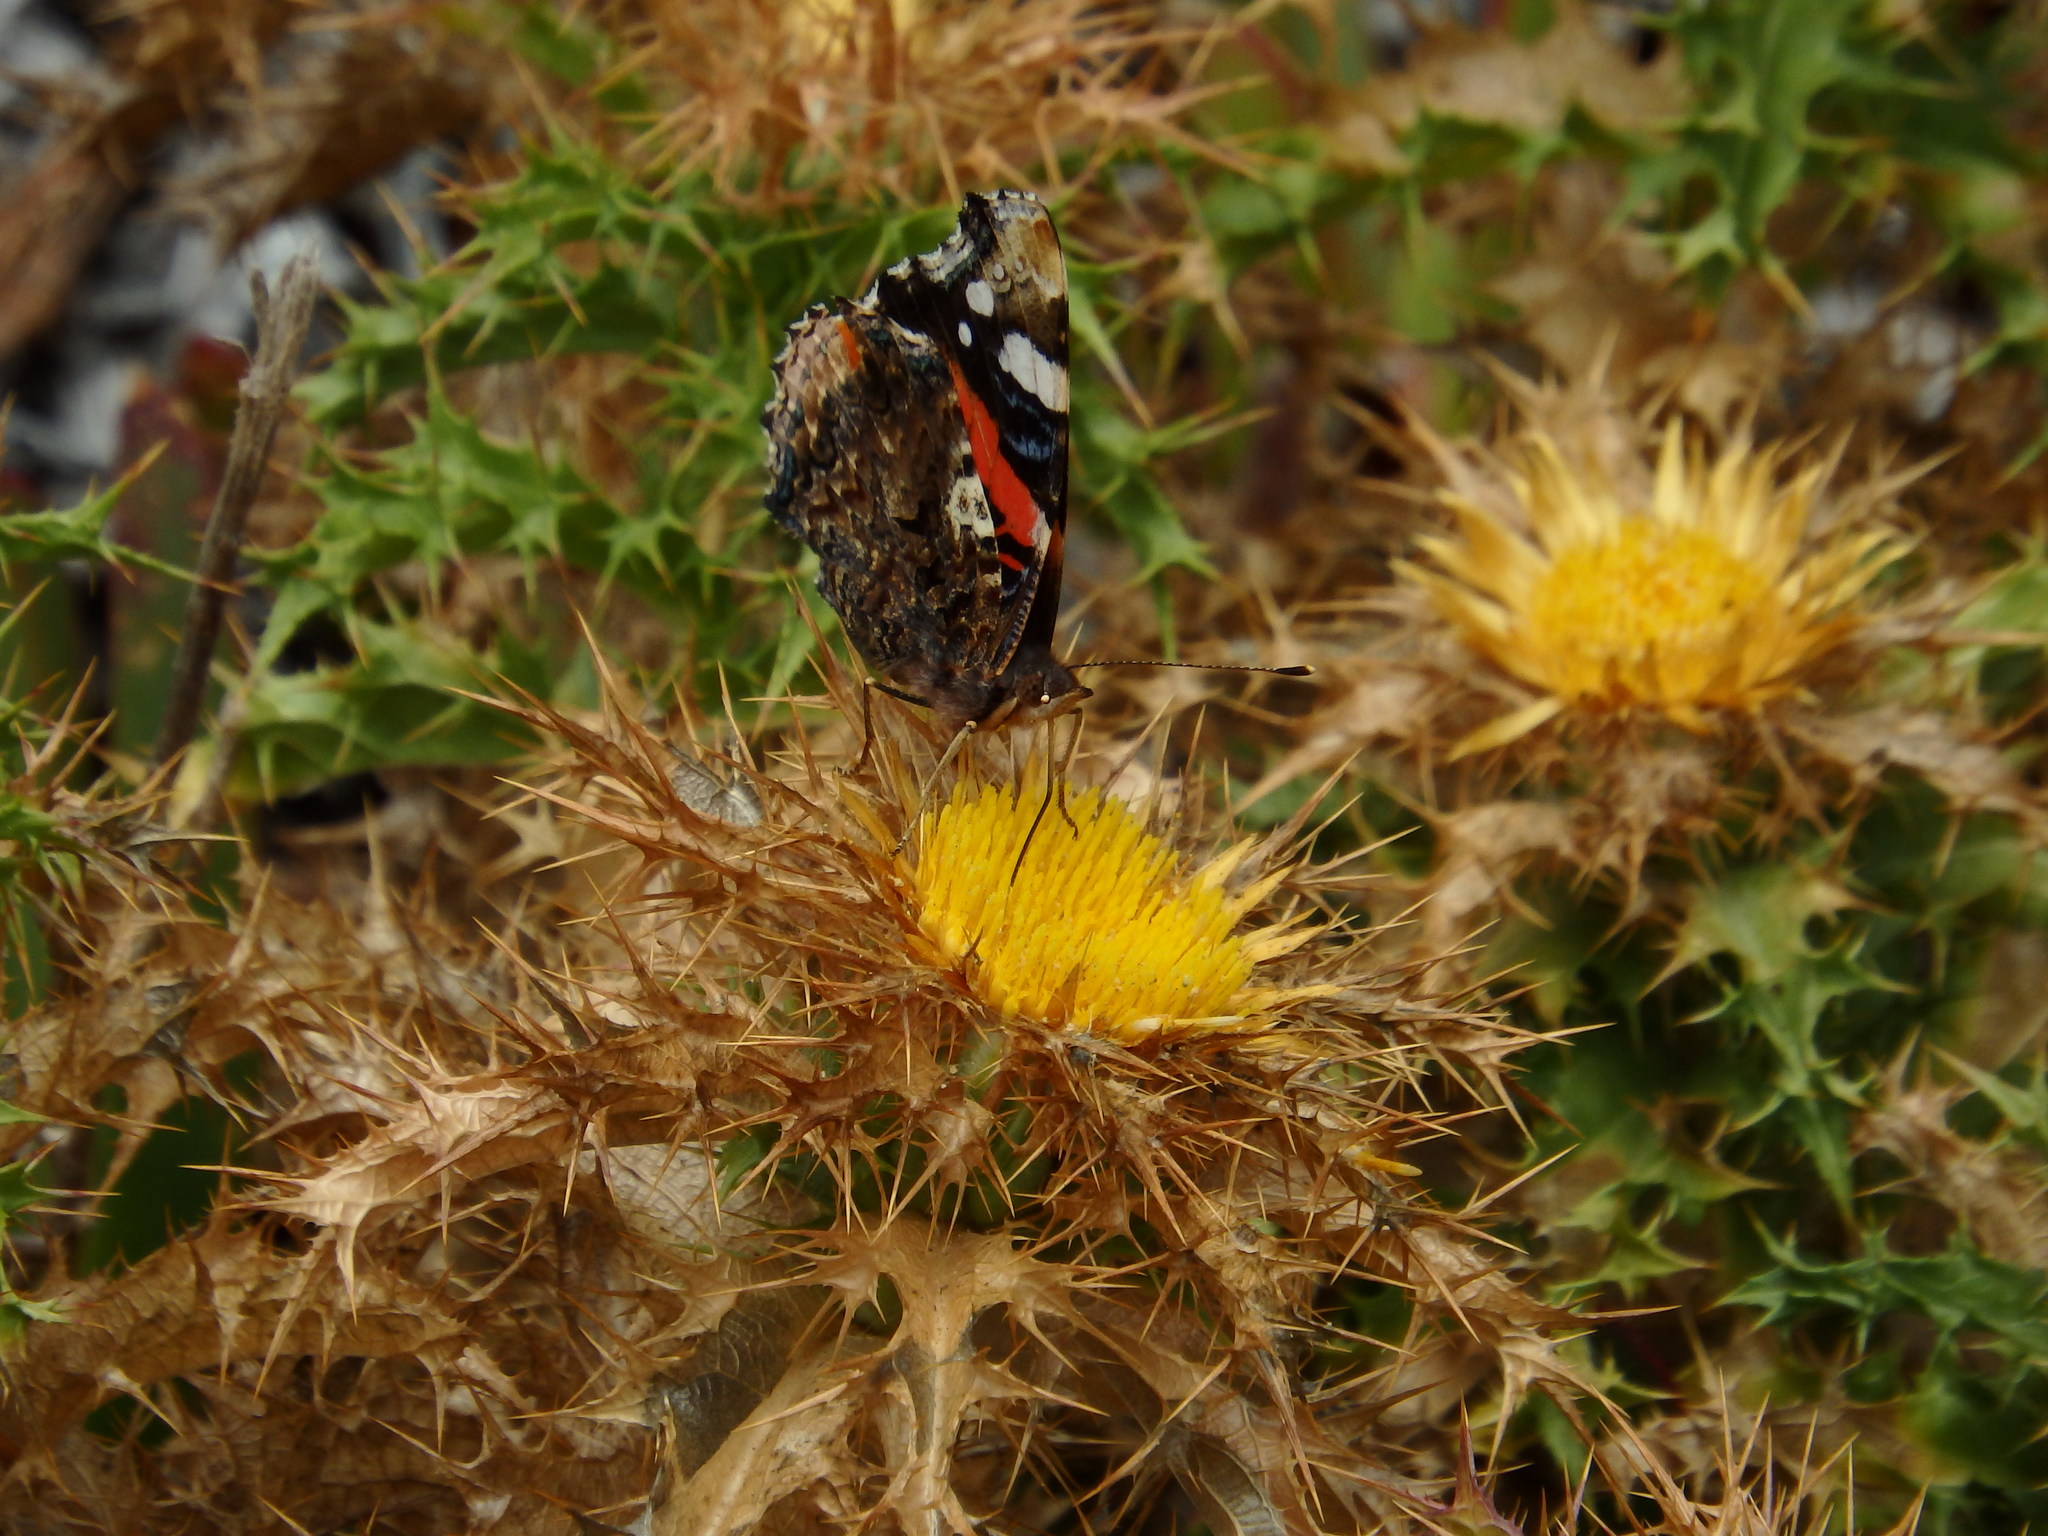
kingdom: Animalia
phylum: Arthropoda
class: Insecta
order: Lepidoptera
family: Nymphalidae
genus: Vanessa
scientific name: Vanessa atalanta
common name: Red admiral
